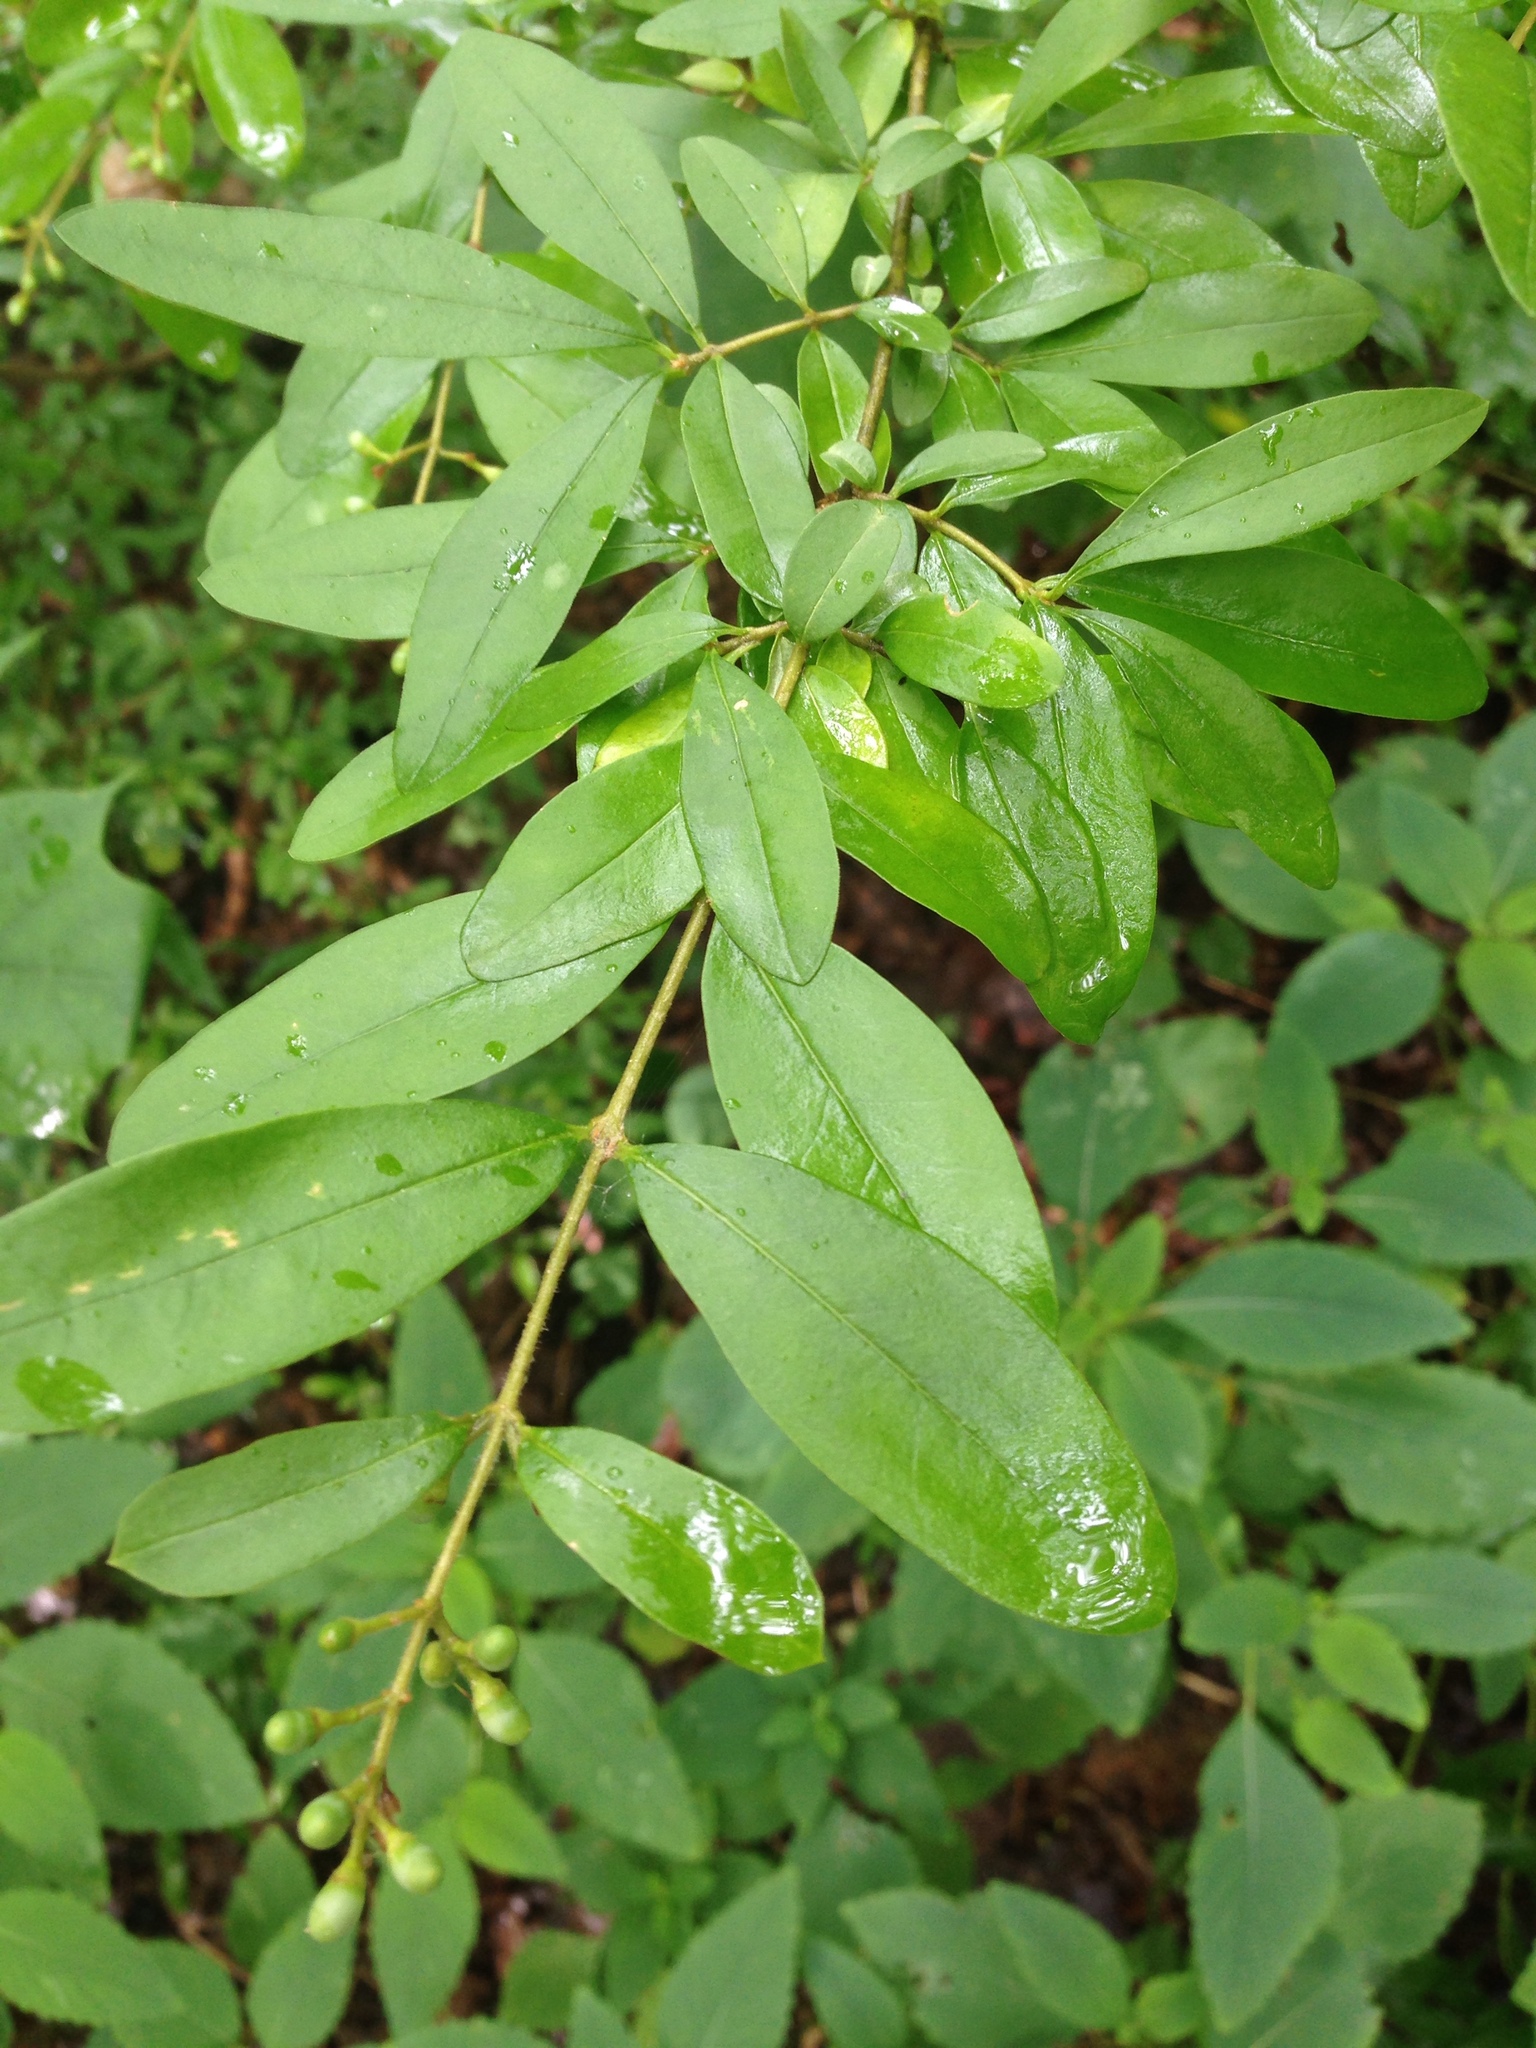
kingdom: Plantae
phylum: Tracheophyta
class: Magnoliopsida
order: Lamiales
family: Oleaceae
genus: Ligustrum
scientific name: Ligustrum obtusifolium
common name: Border privet
